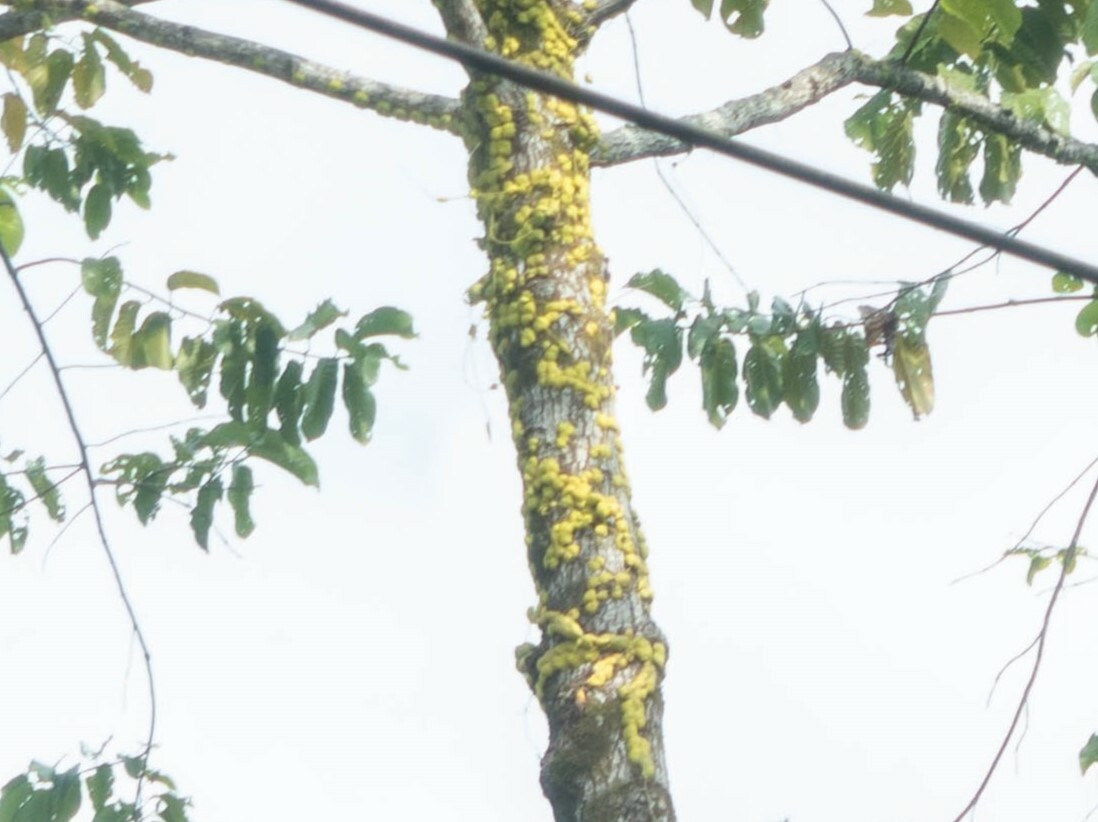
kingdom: Plantae
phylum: Tracheophyta
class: Magnoliopsida
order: Gentianales
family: Apocynaceae
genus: Dischidia
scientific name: Dischidia imbricata
